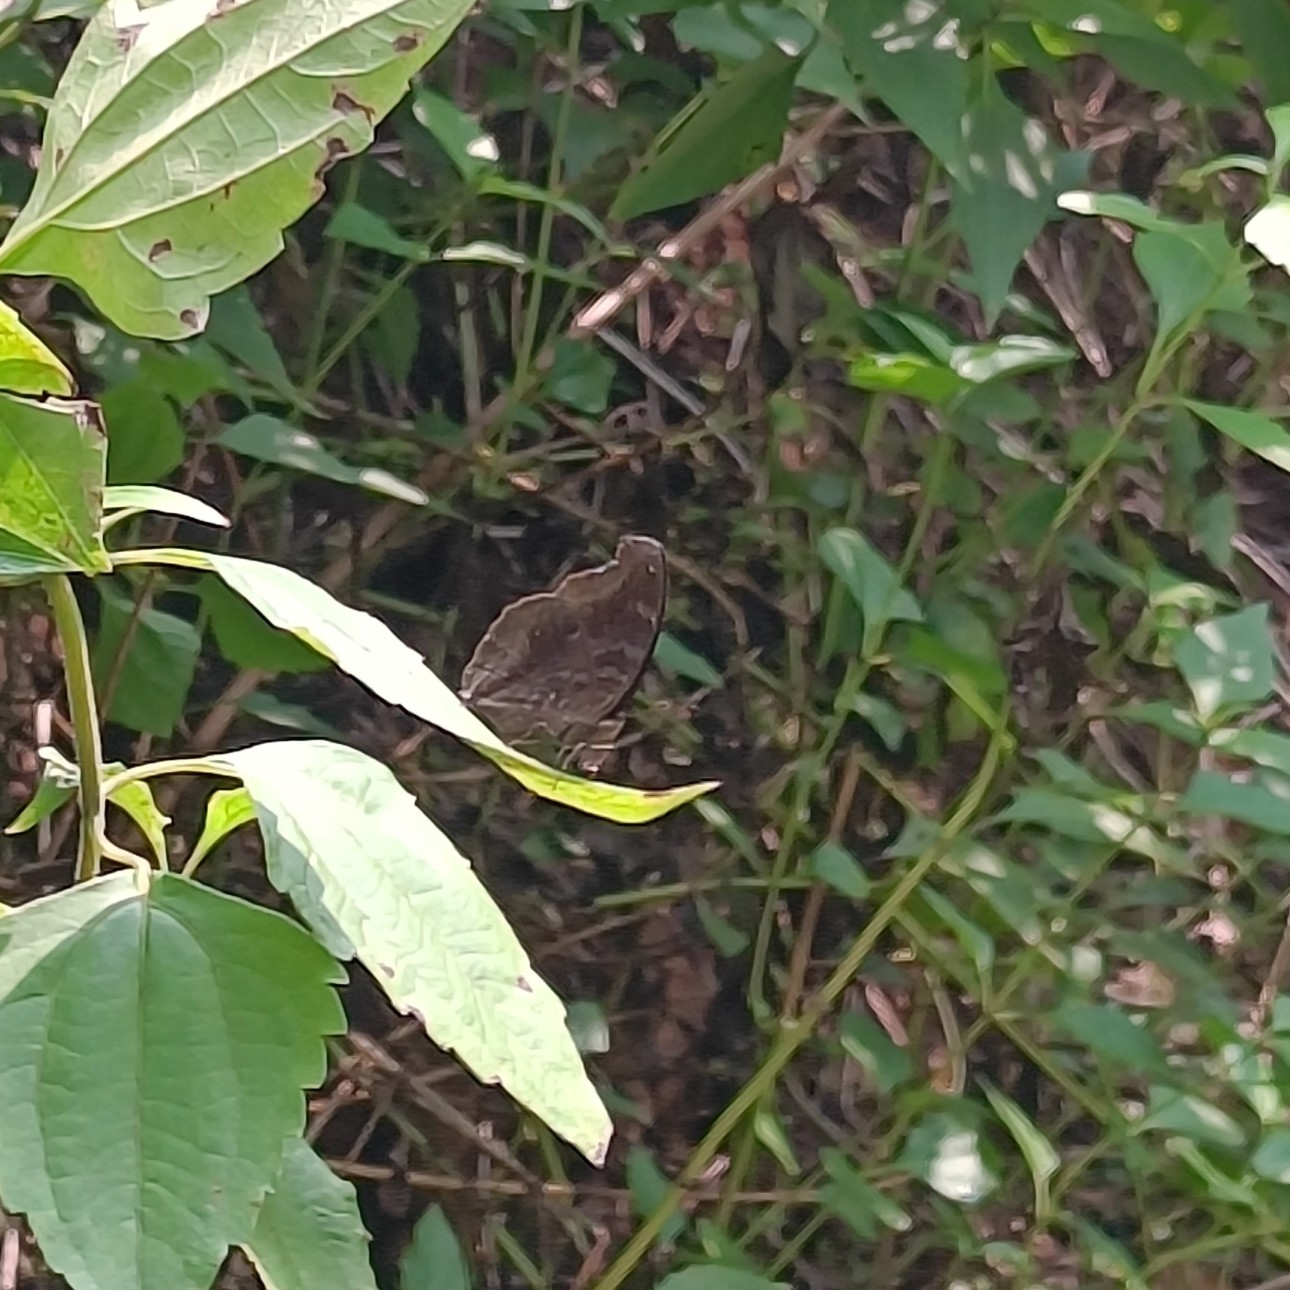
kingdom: Animalia
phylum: Arthropoda
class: Insecta
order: Lepidoptera
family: Nymphalidae
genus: Junonia
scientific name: Junonia iphita
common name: Chocolate pansy
